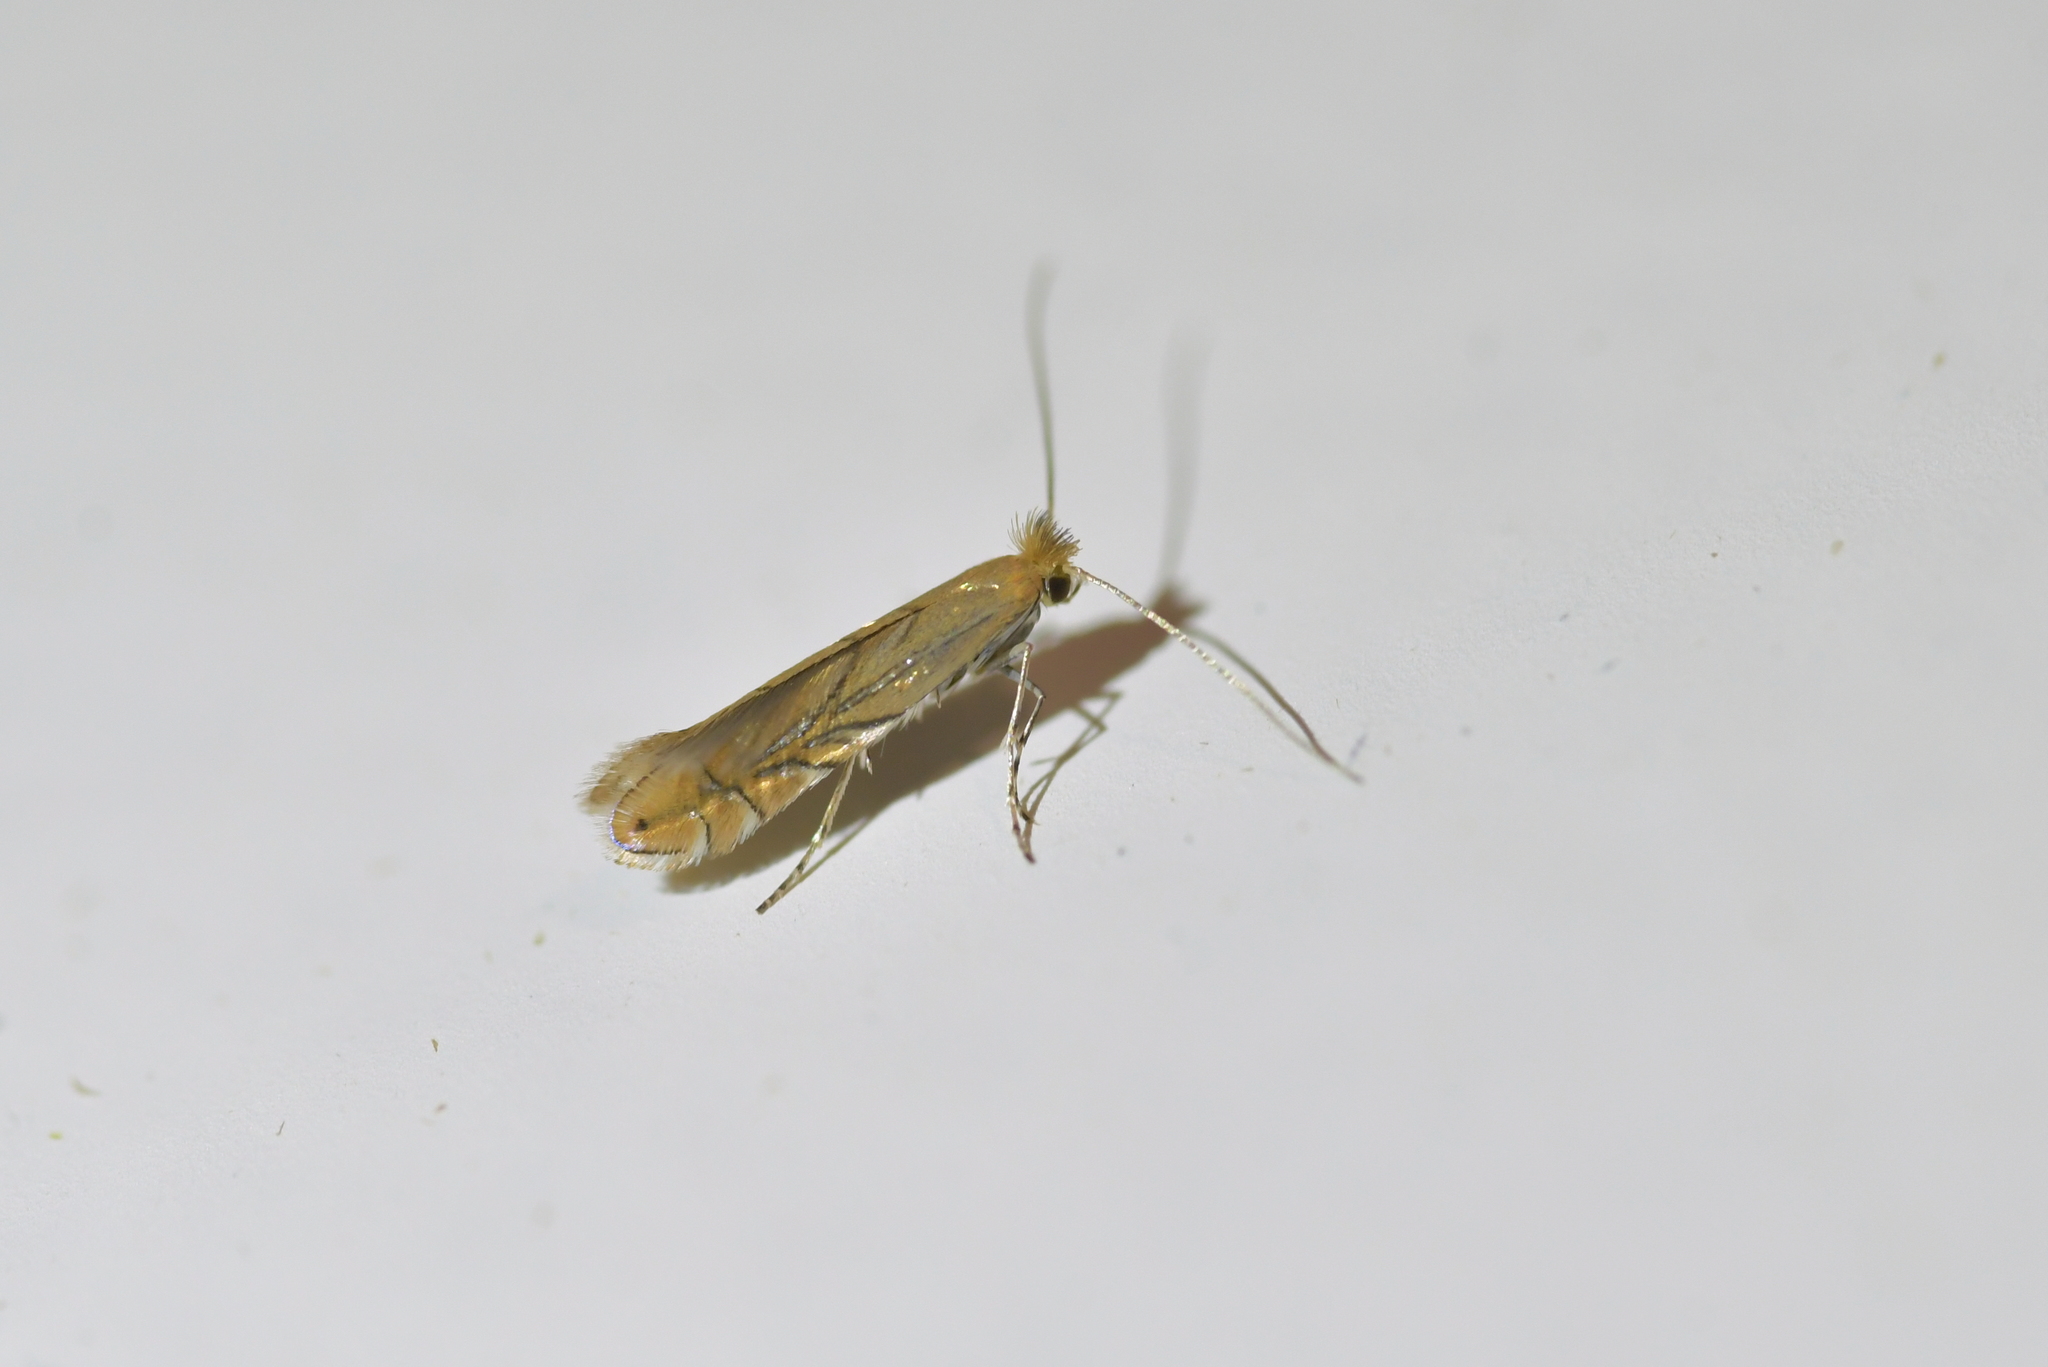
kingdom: Animalia
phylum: Arthropoda
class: Insecta
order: Lepidoptera
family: Gracillariidae
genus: Phyllonorycter
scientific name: Phyllonorycter messaniella
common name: Garden midget
